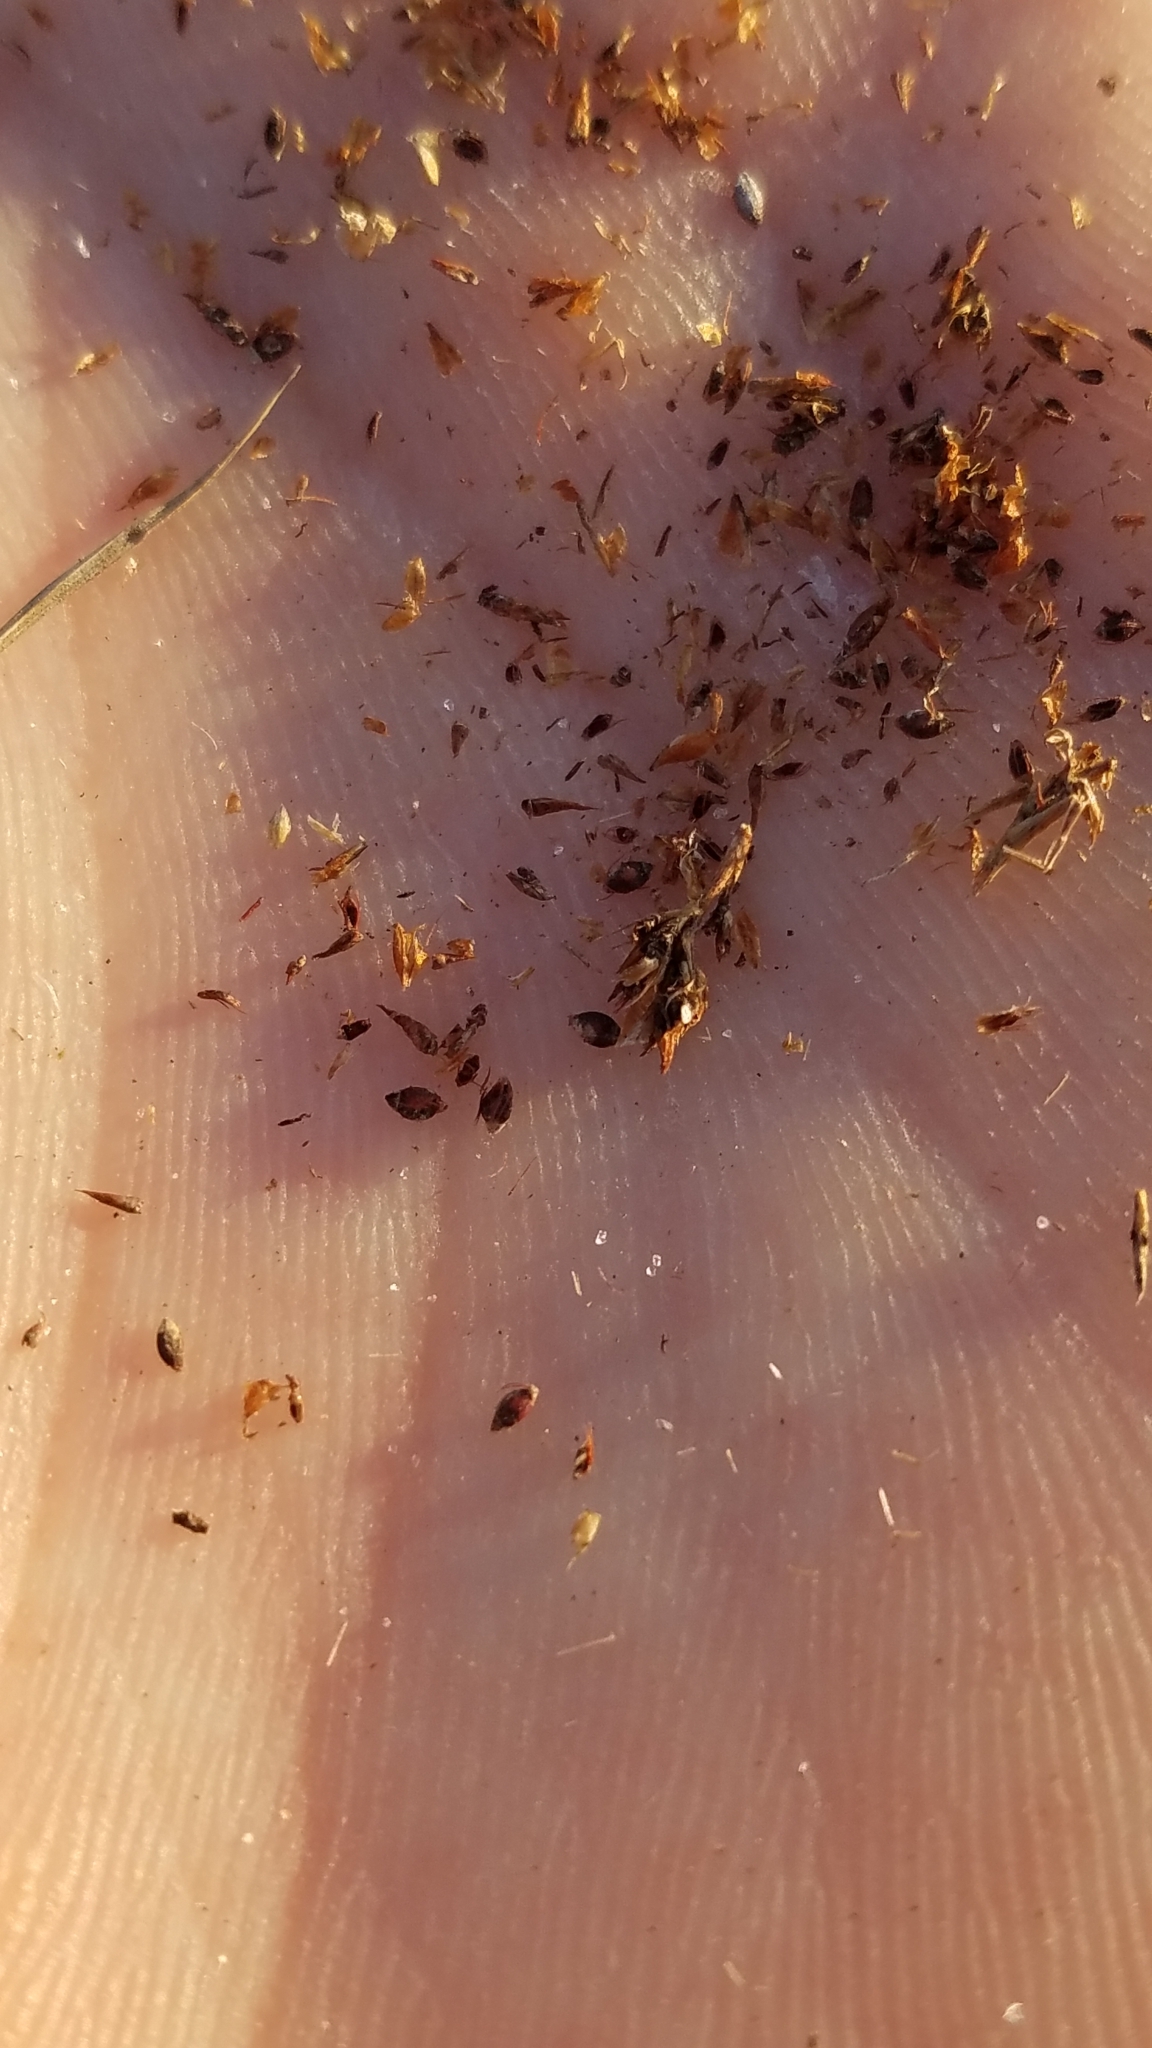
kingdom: Plantae
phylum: Tracheophyta
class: Liliopsida
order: Poales
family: Cyperaceae
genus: Rhynchospora
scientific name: Rhynchospora fernaldii
